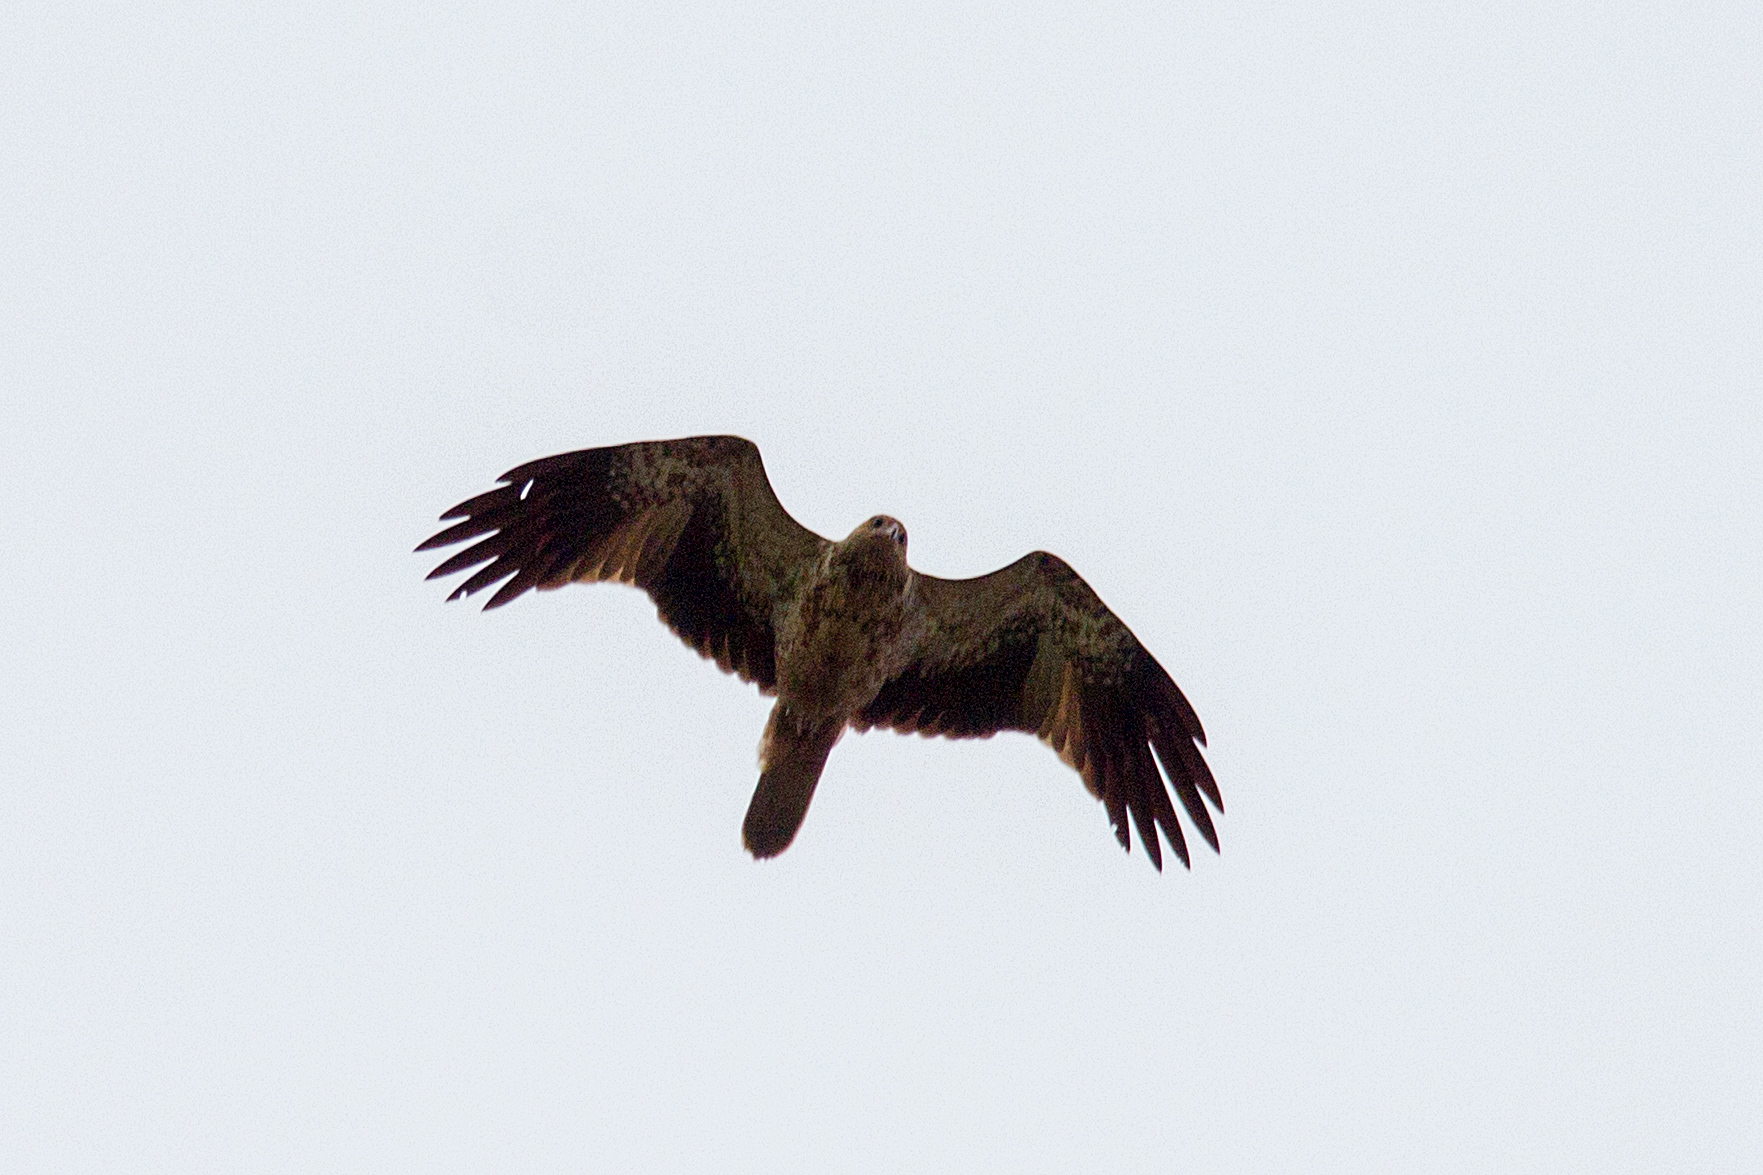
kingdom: Animalia
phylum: Chordata
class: Aves
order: Accipitriformes
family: Accipitridae
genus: Haliastur
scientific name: Haliastur sphenurus
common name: Whistling kite
